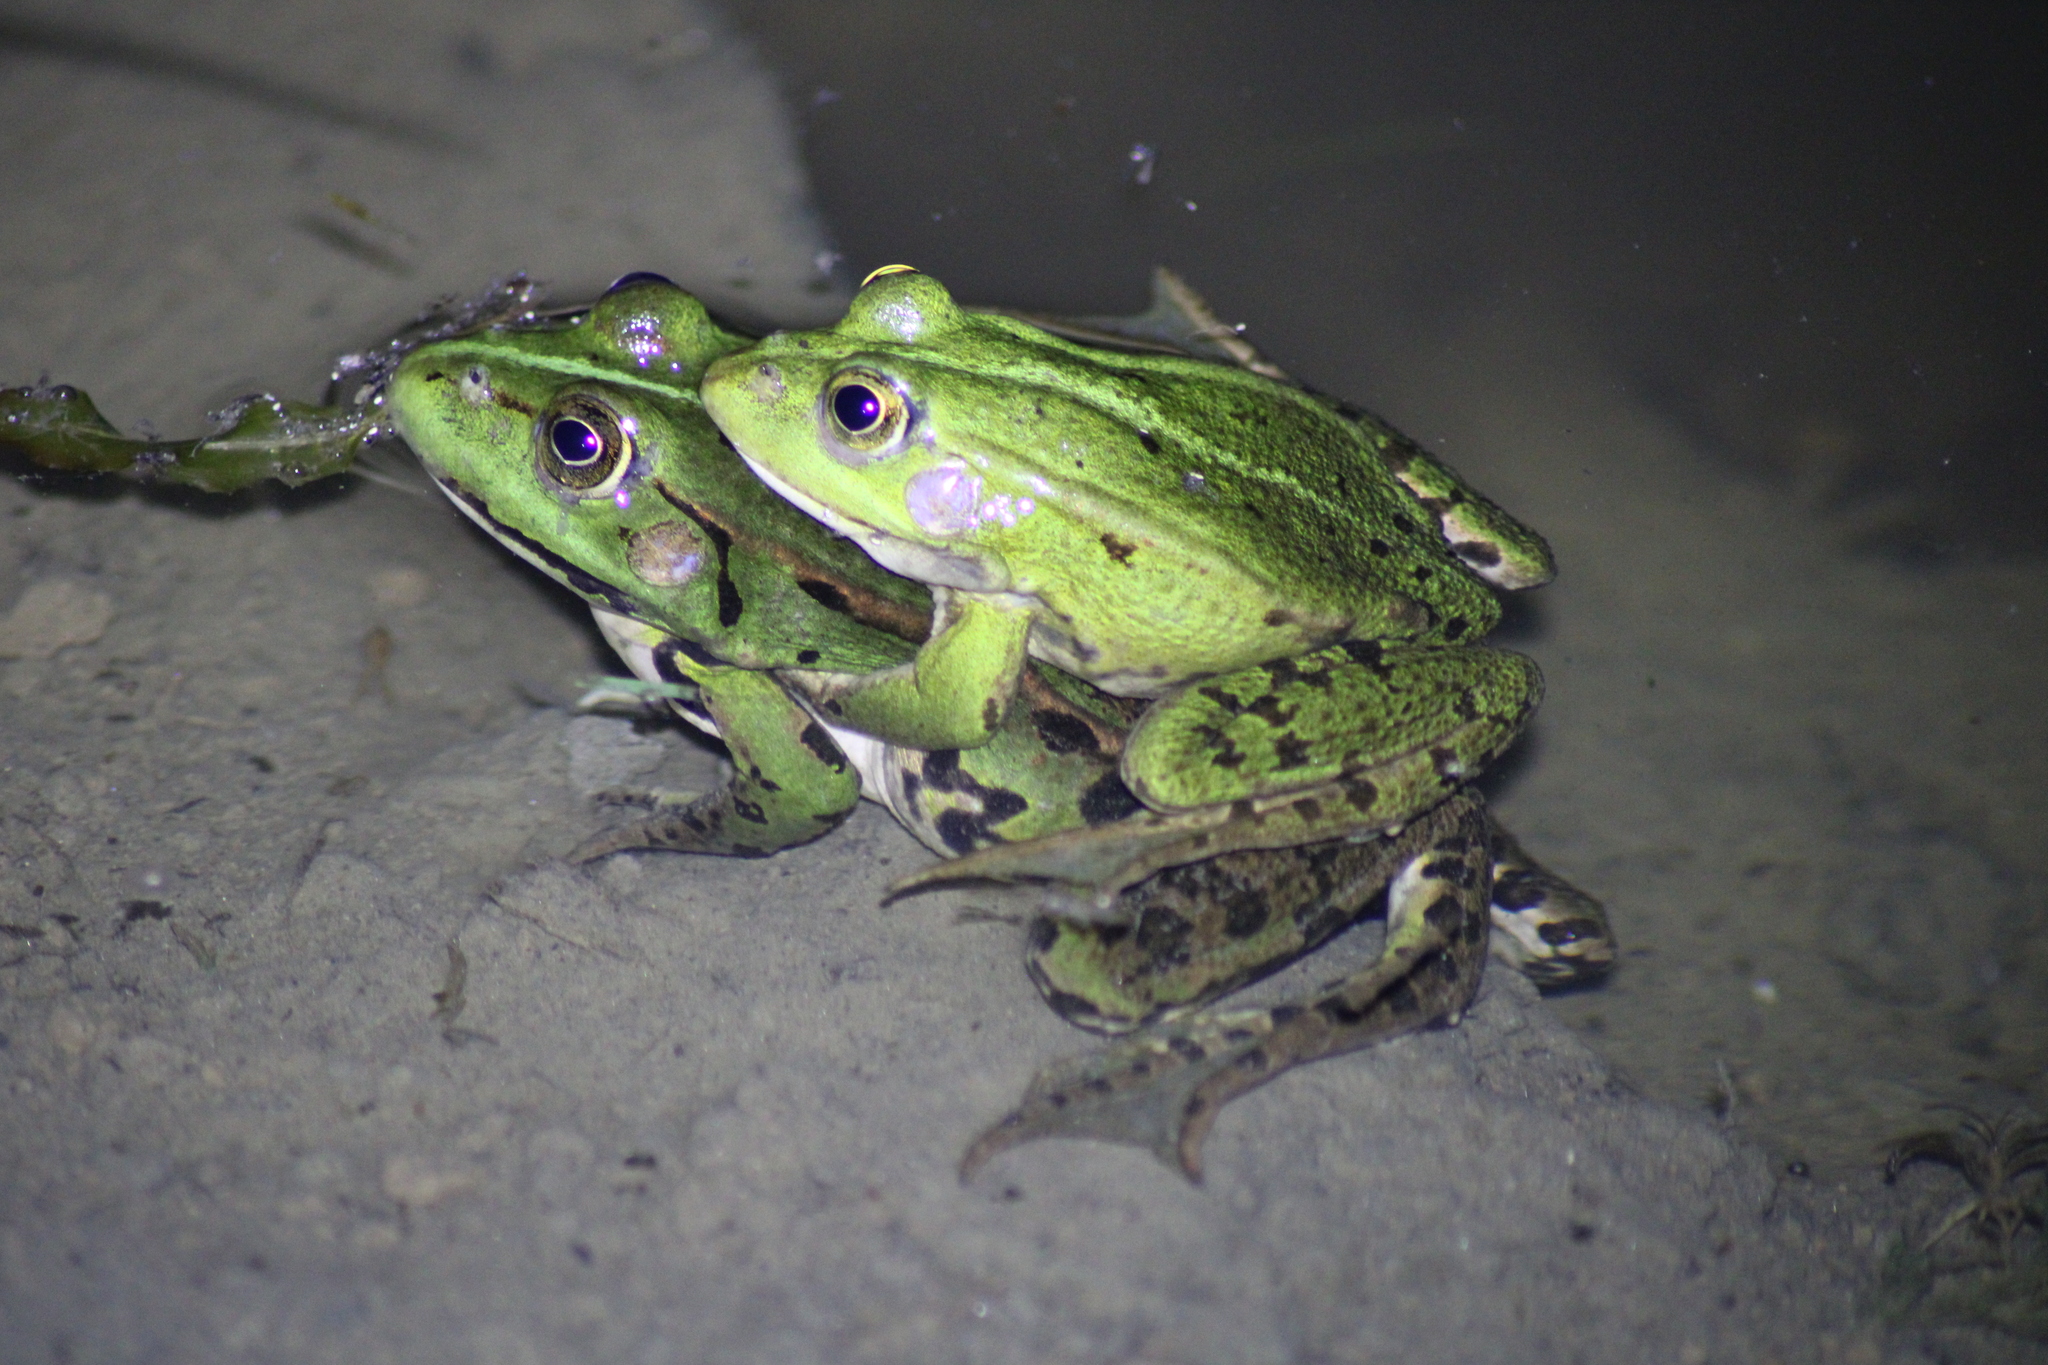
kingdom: Animalia
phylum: Chordata
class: Amphibia
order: Anura
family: Ranidae
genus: Pelophylax
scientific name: Pelophylax
